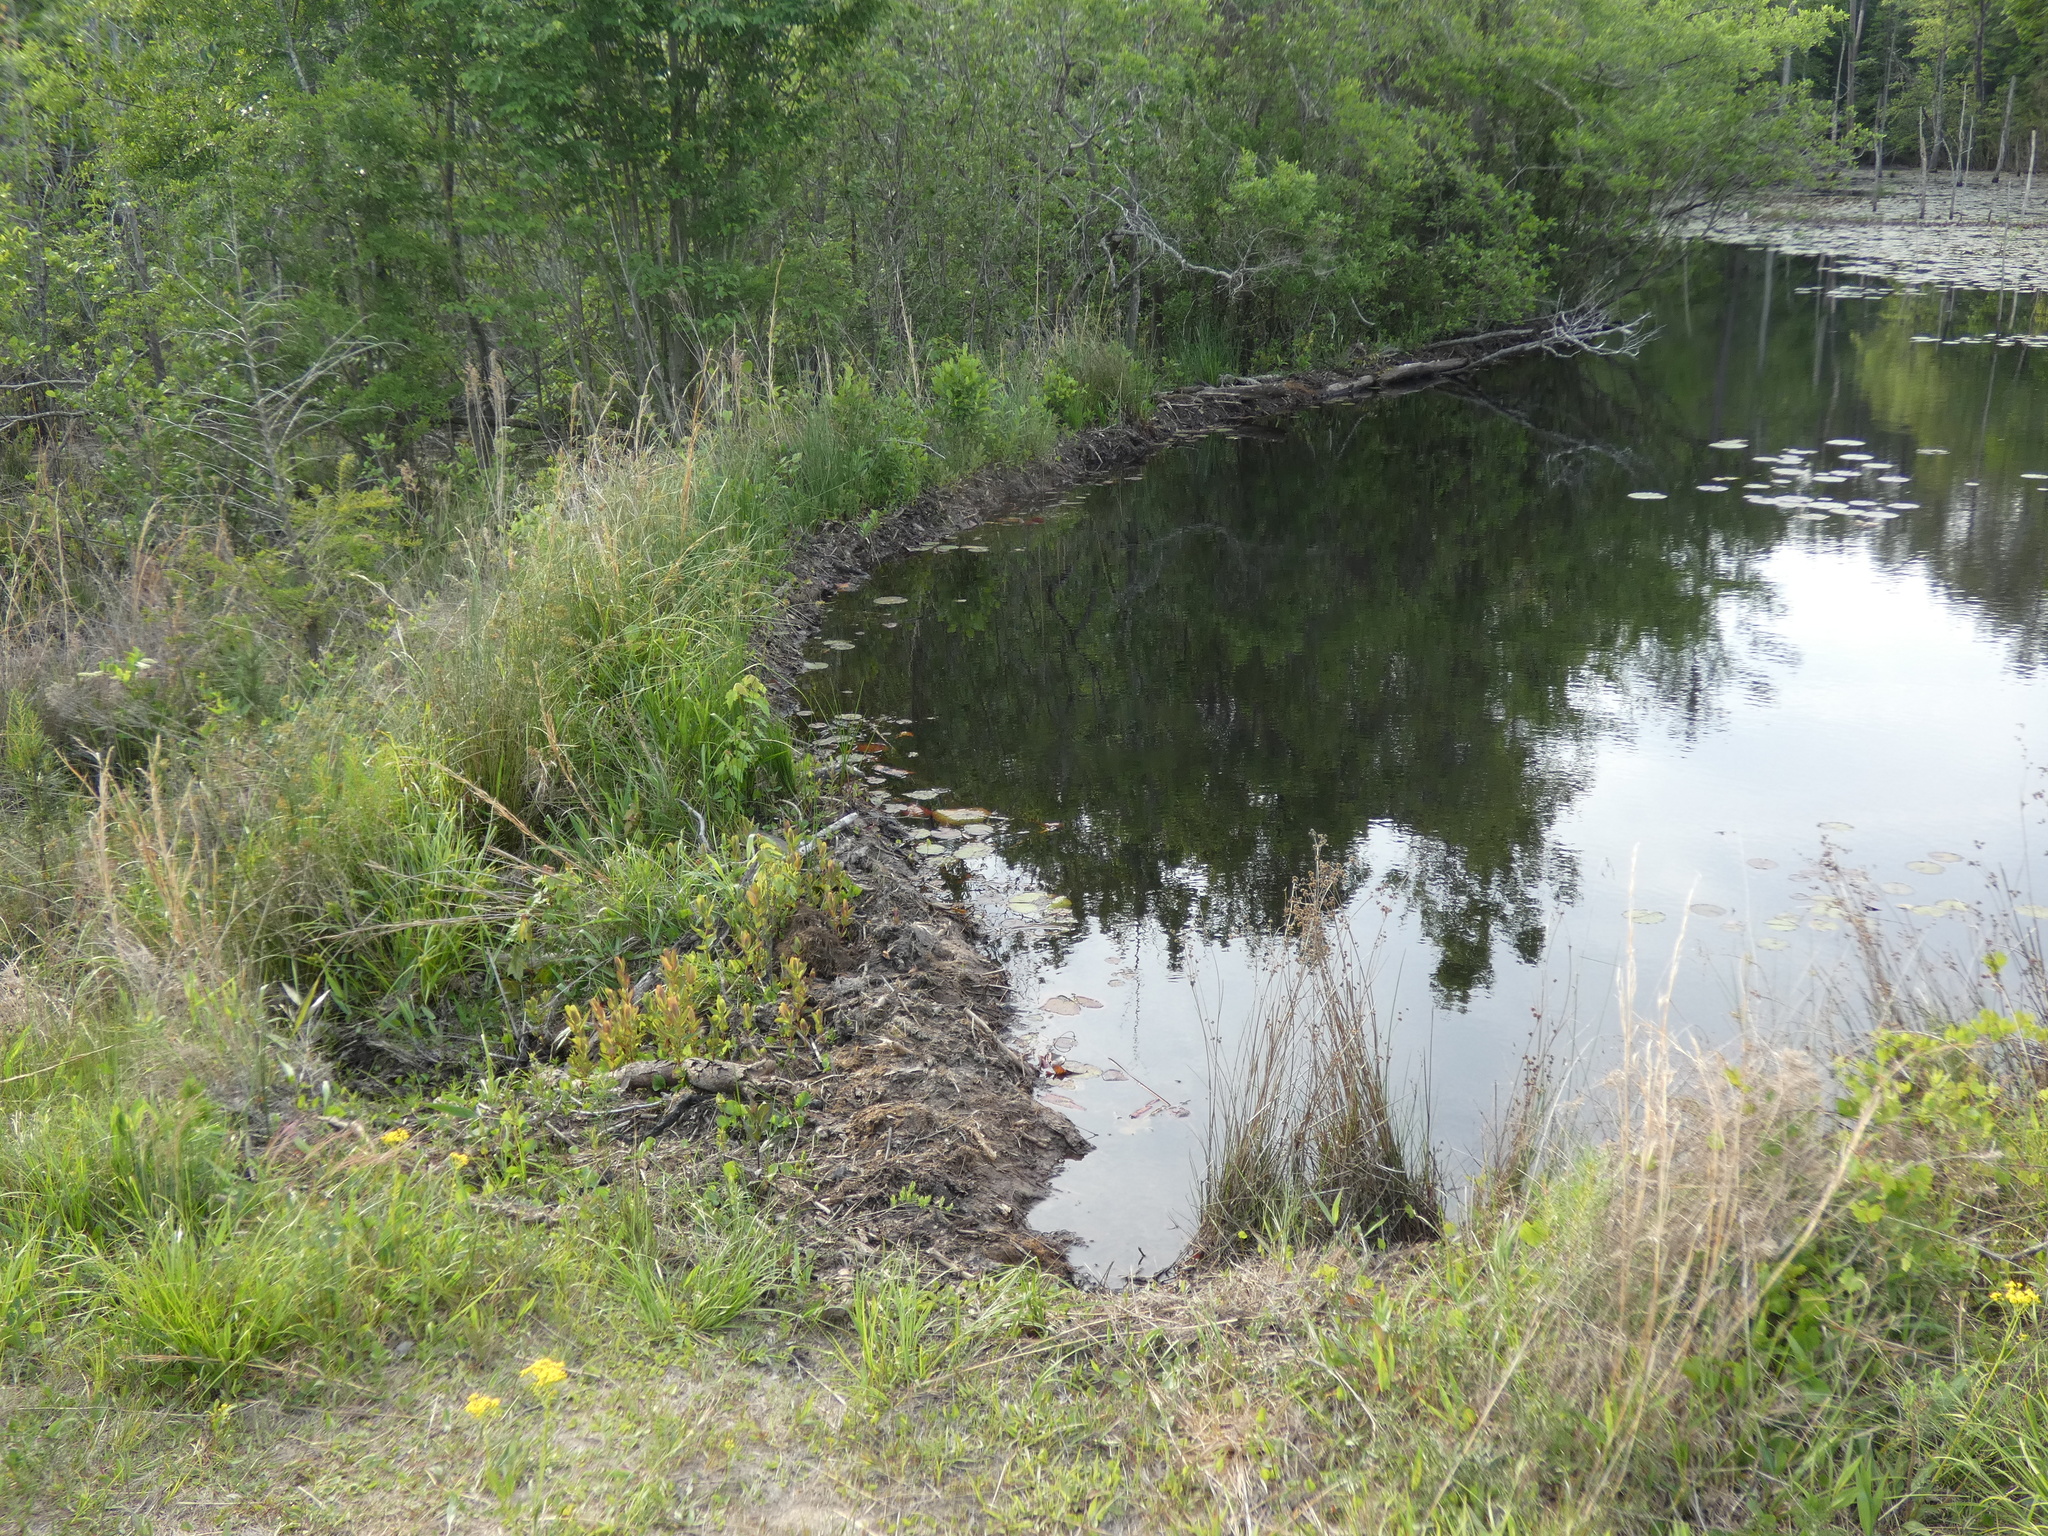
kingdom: Animalia
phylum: Chordata
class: Mammalia
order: Rodentia
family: Castoridae
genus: Castor
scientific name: Castor canadensis
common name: American beaver
